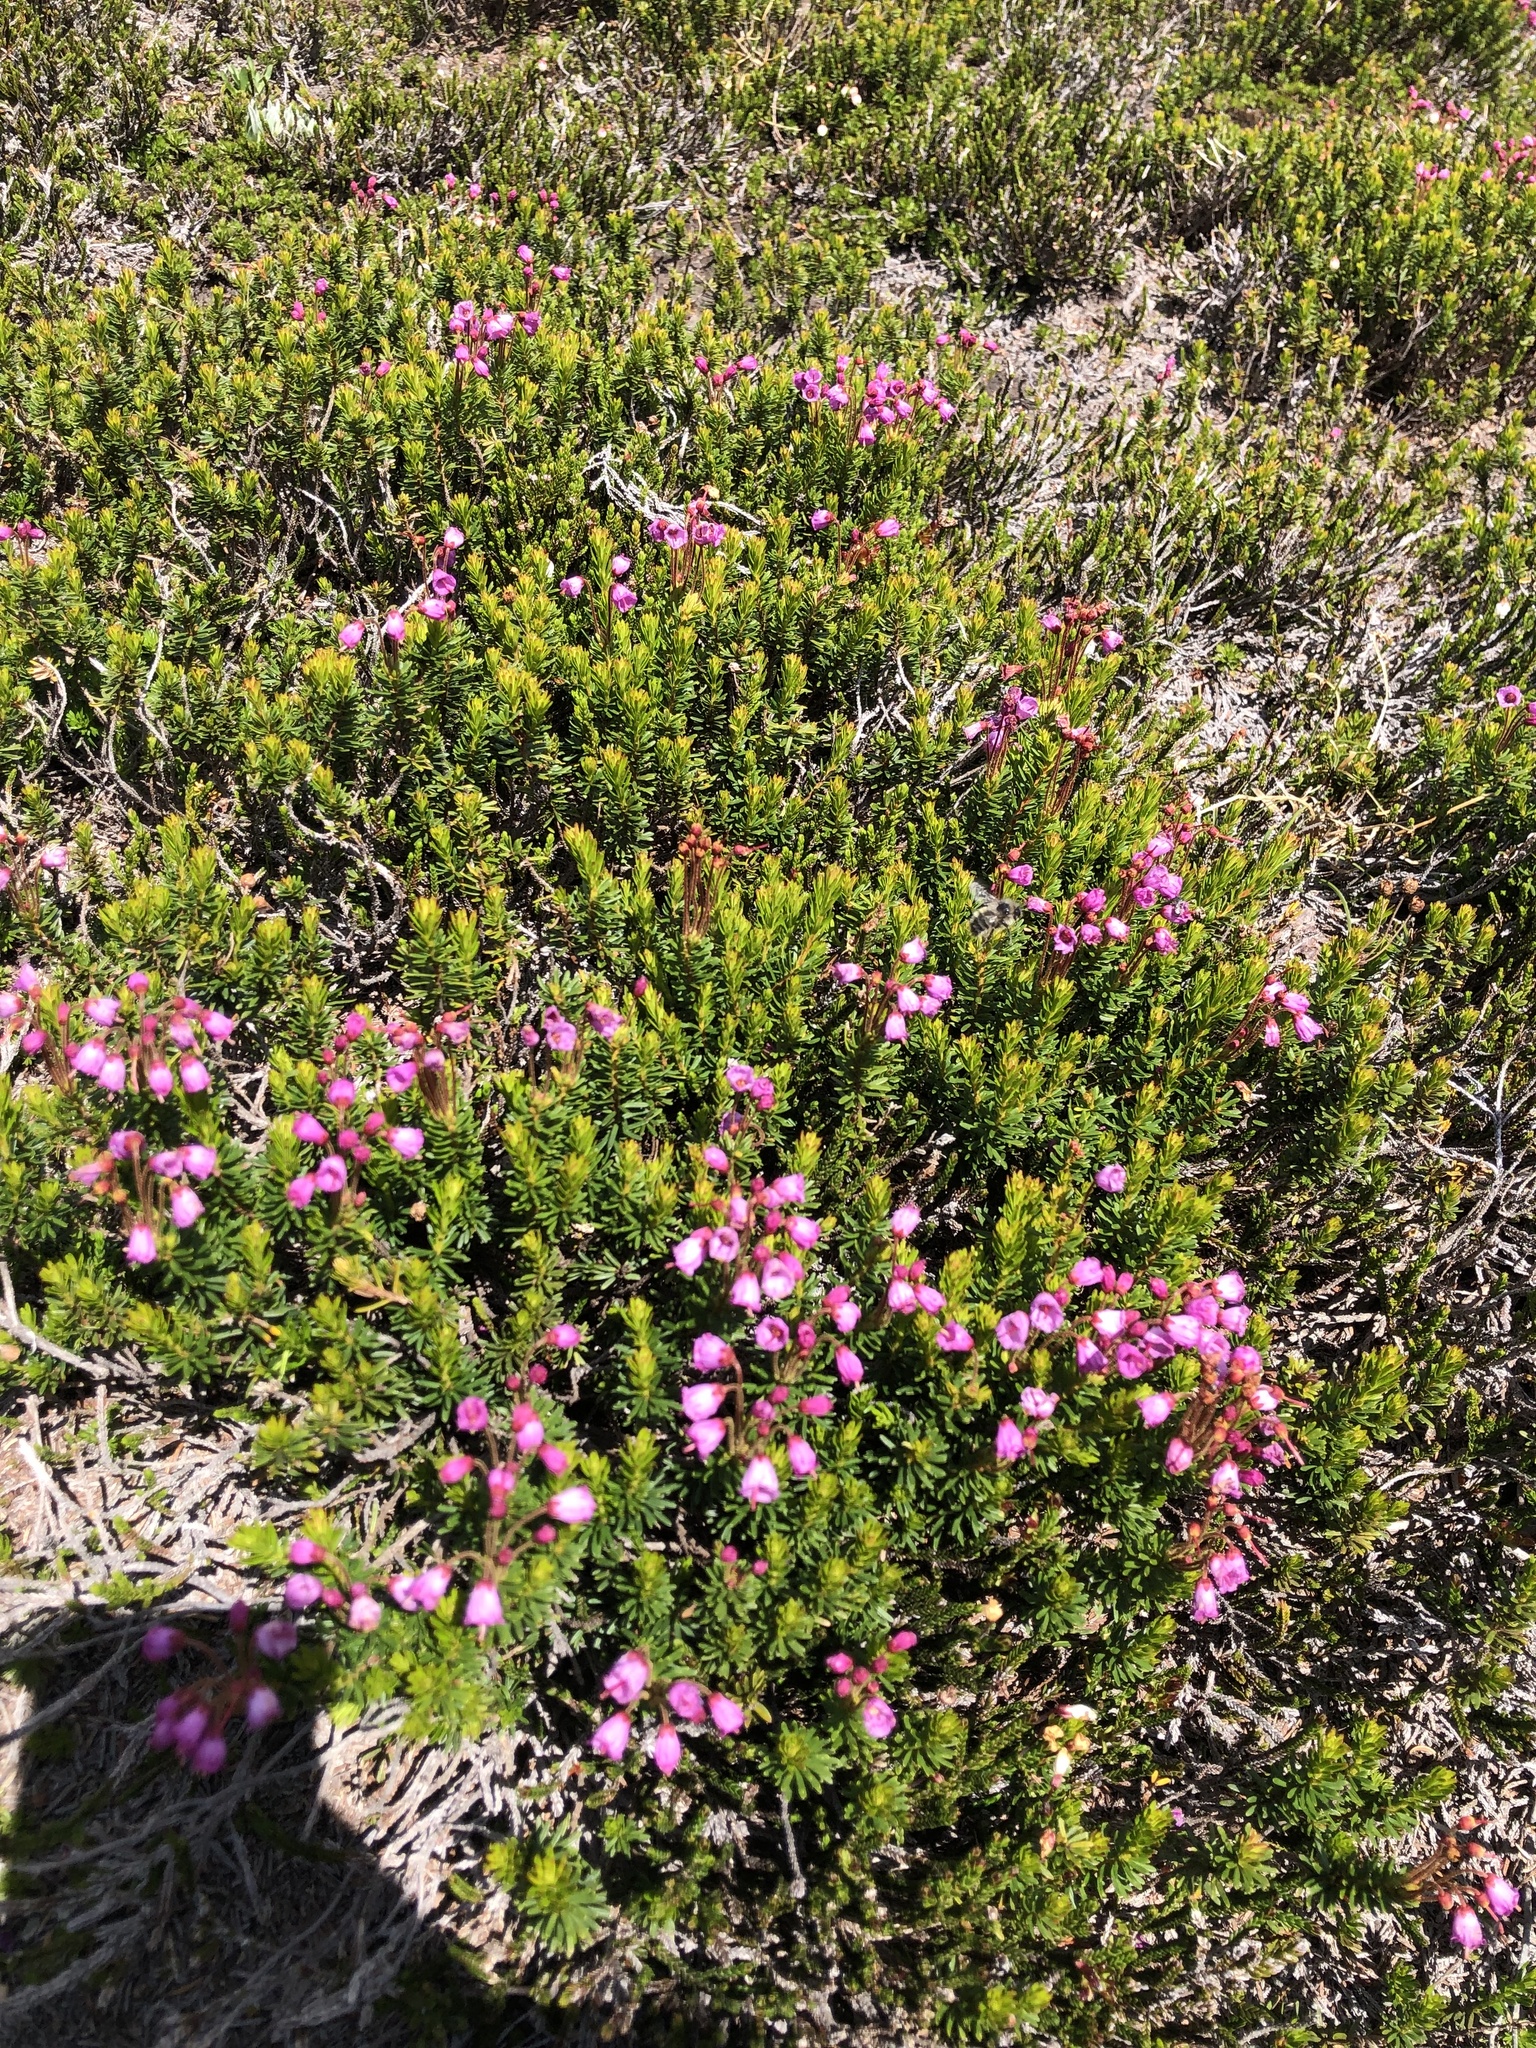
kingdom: Plantae
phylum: Tracheophyta
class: Magnoliopsida
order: Ericales
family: Ericaceae
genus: Phyllodoce
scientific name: Phyllodoce empetriformis
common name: Pink mountain heather
